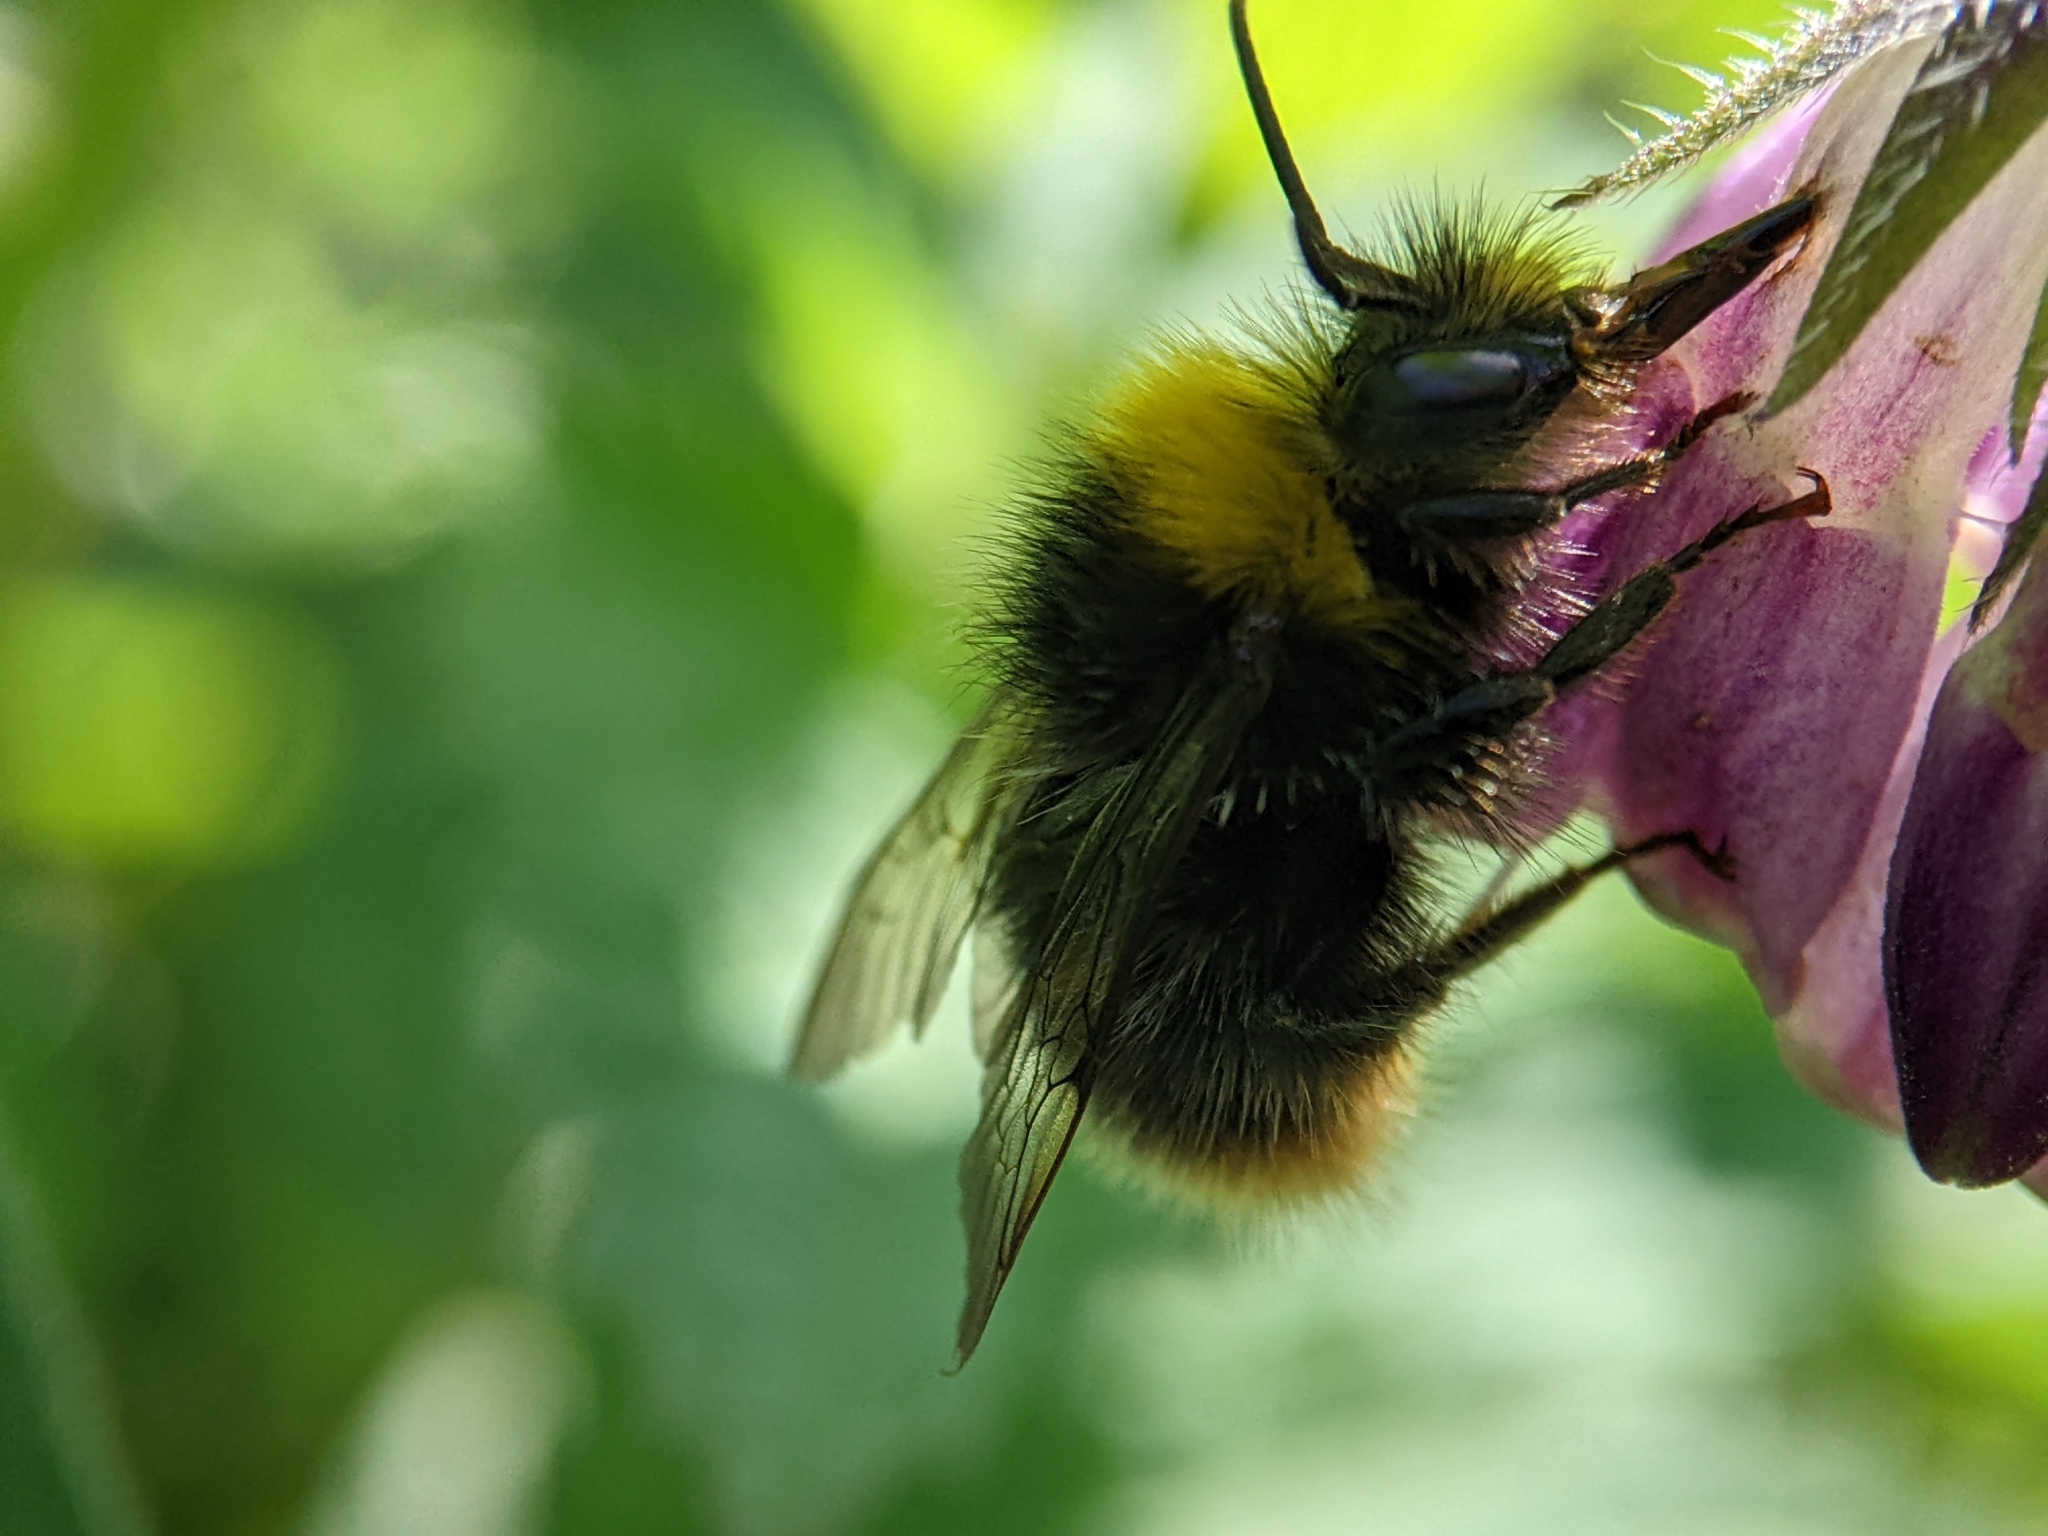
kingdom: Animalia
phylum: Arthropoda
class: Insecta
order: Hymenoptera
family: Apidae
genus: Bombus
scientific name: Bombus pratorum
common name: Early humble-bee
